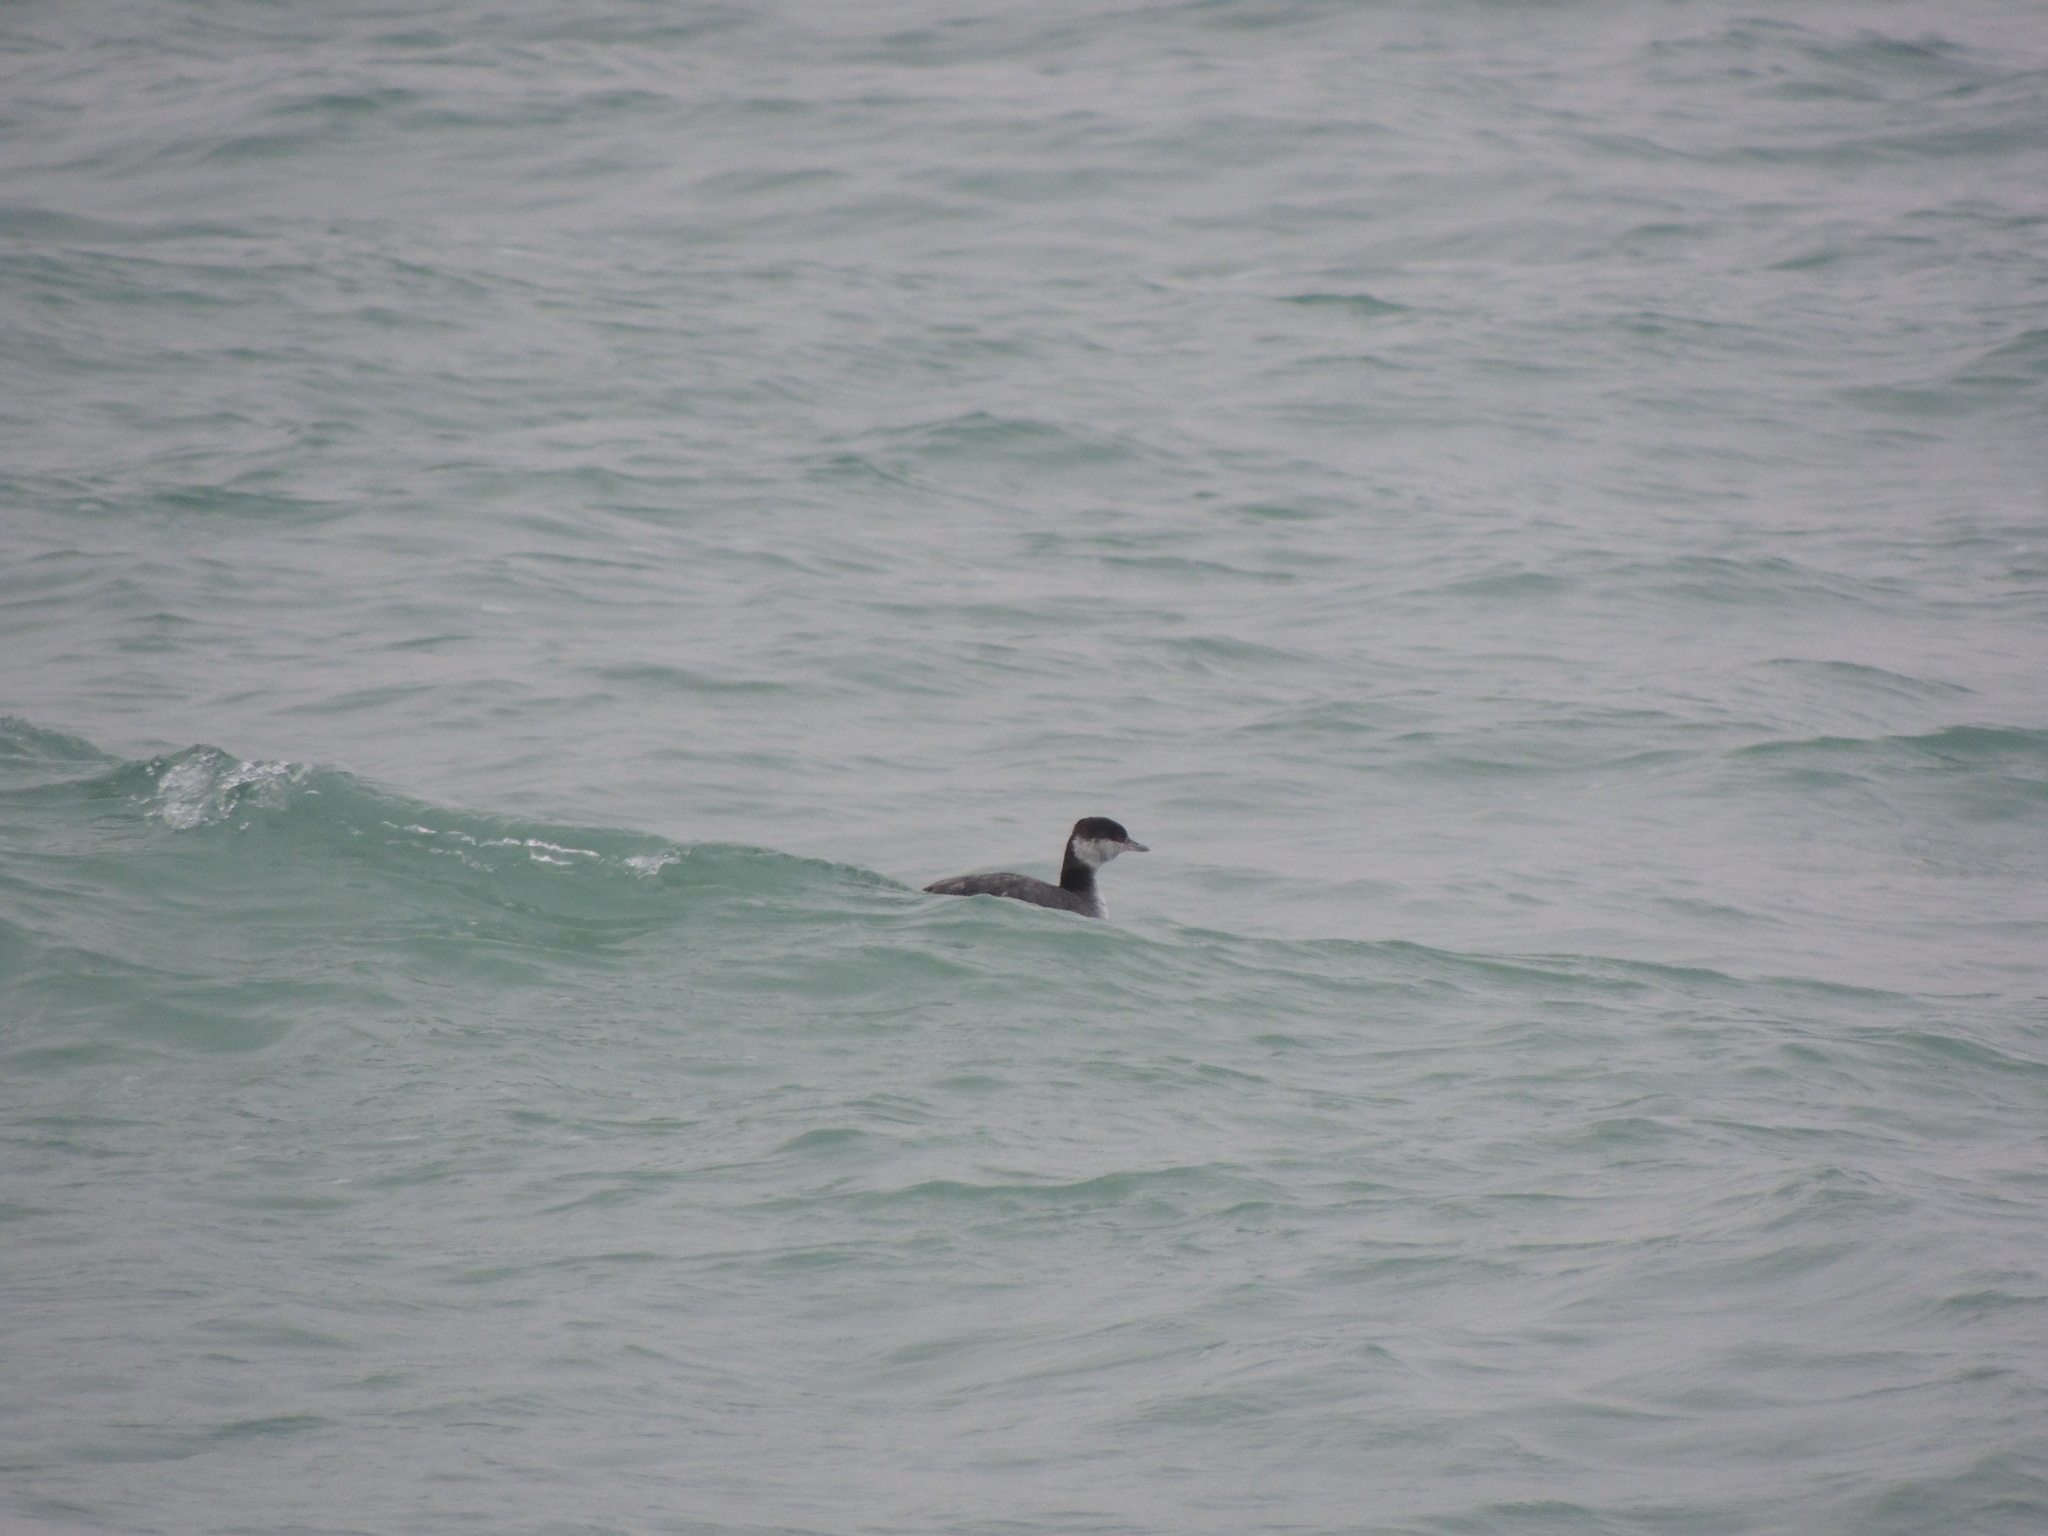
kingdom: Animalia
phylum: Chordata
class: Aves
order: Podicipediformes
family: Podicipedidae
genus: Podiceps
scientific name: Podiceps auritus
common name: Horned grebe
